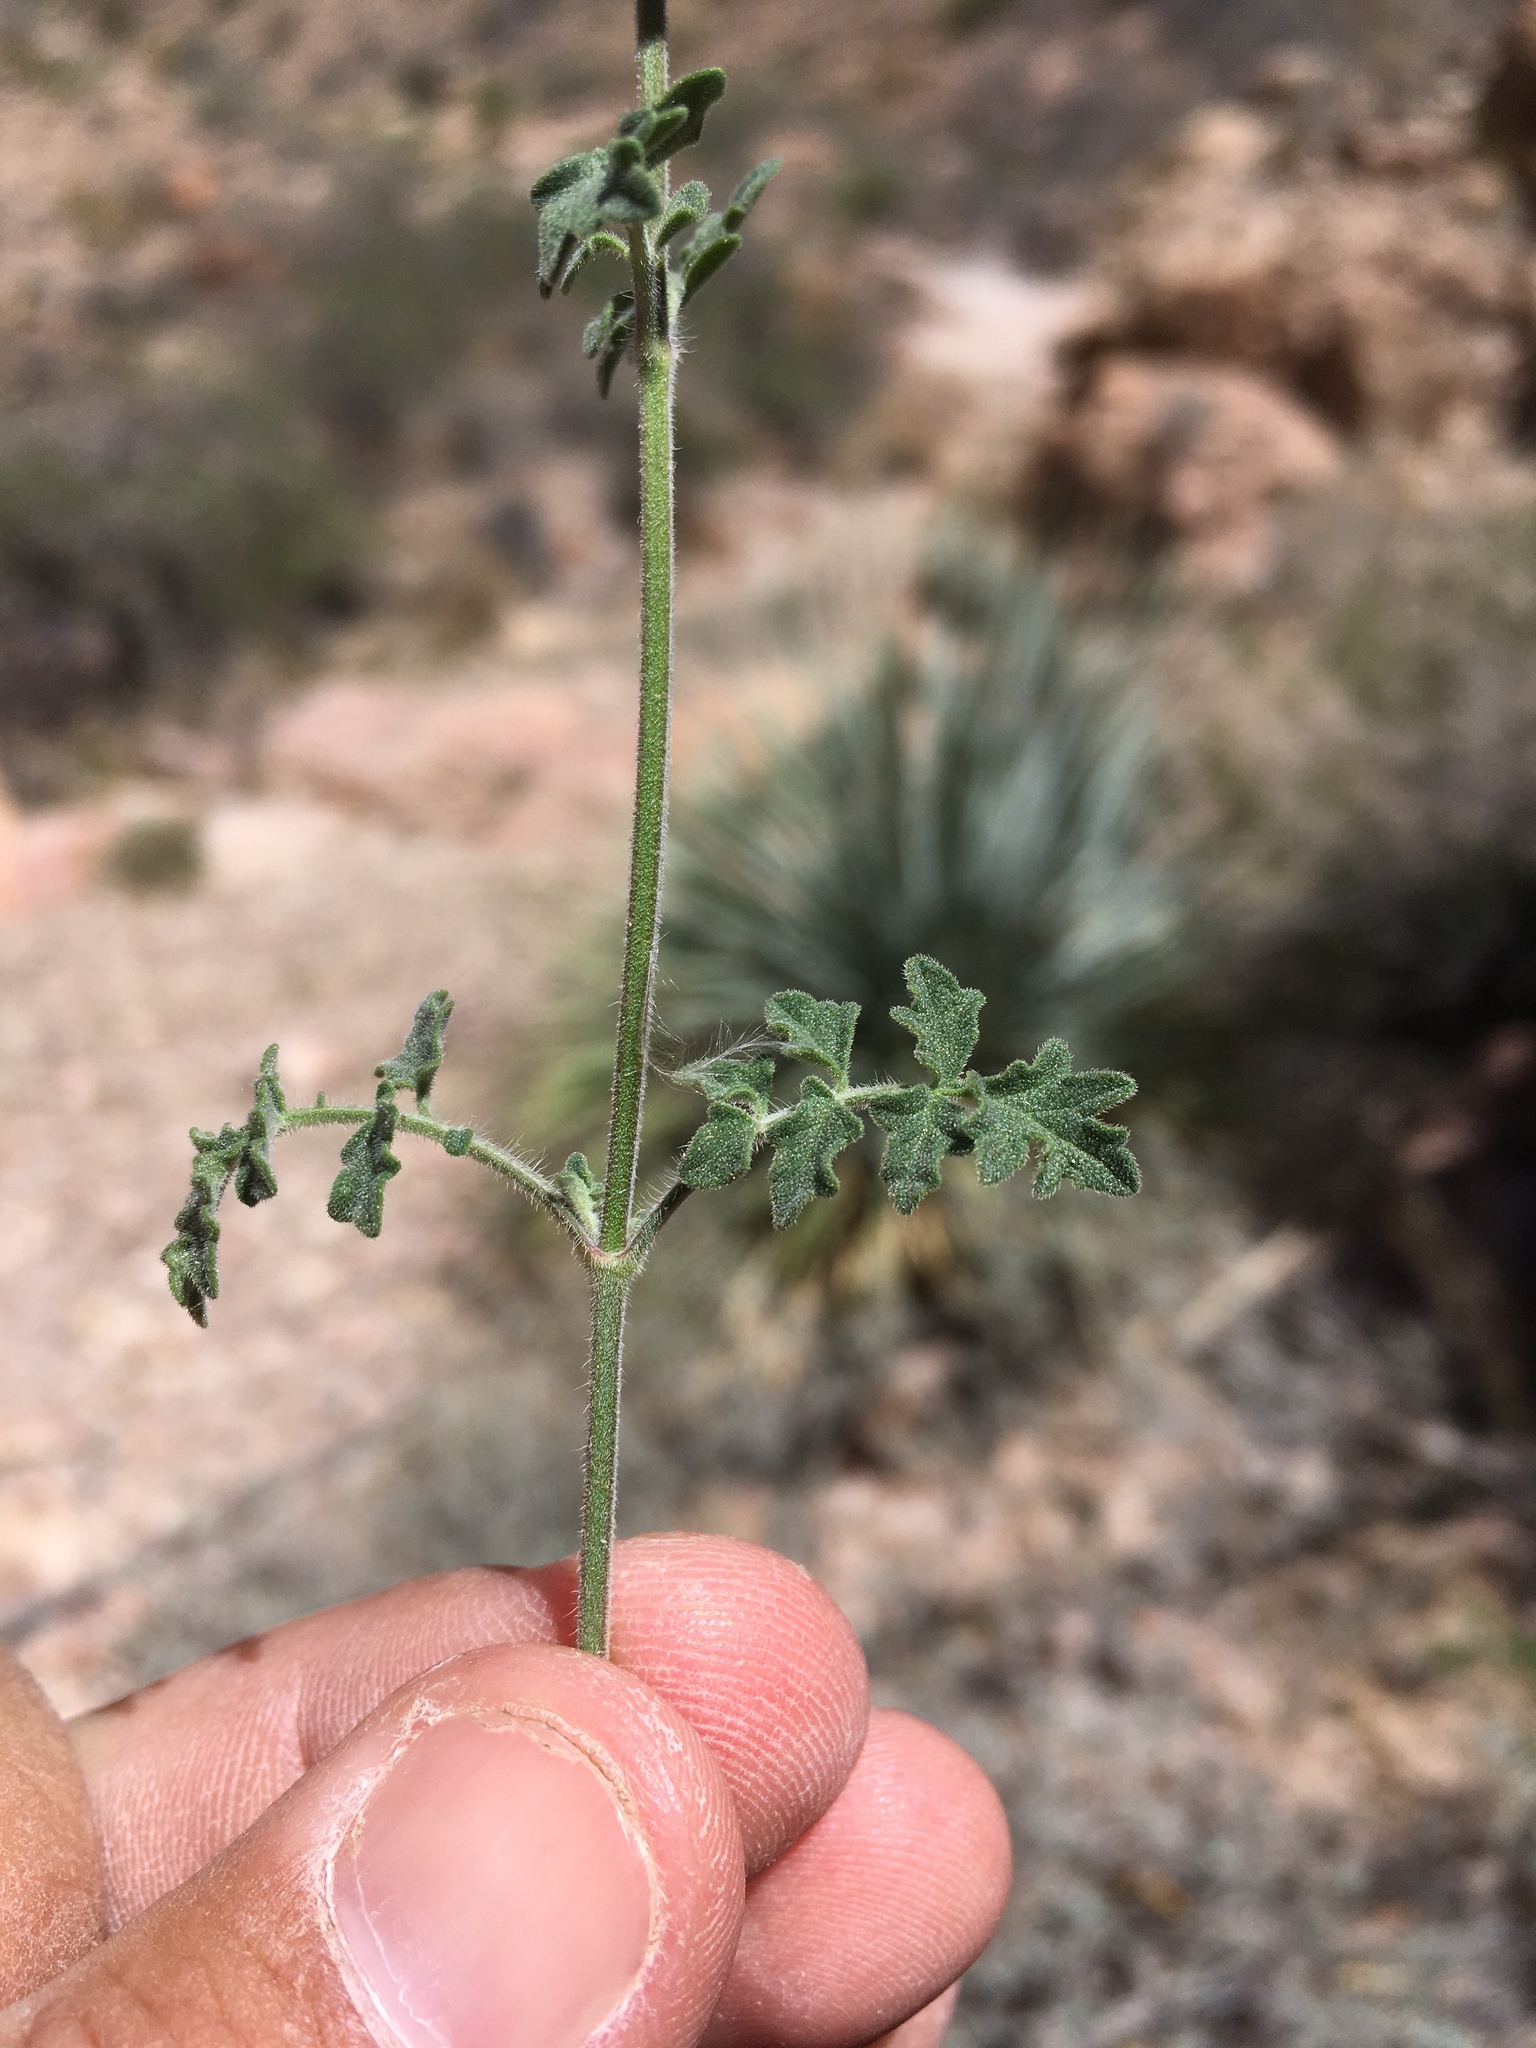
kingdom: Plantae
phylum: Tracheophyta
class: Magnoliopsida
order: Lamiales
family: Lamiaceae
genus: Salvia
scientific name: Salvia henryi
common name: Henry's sage
